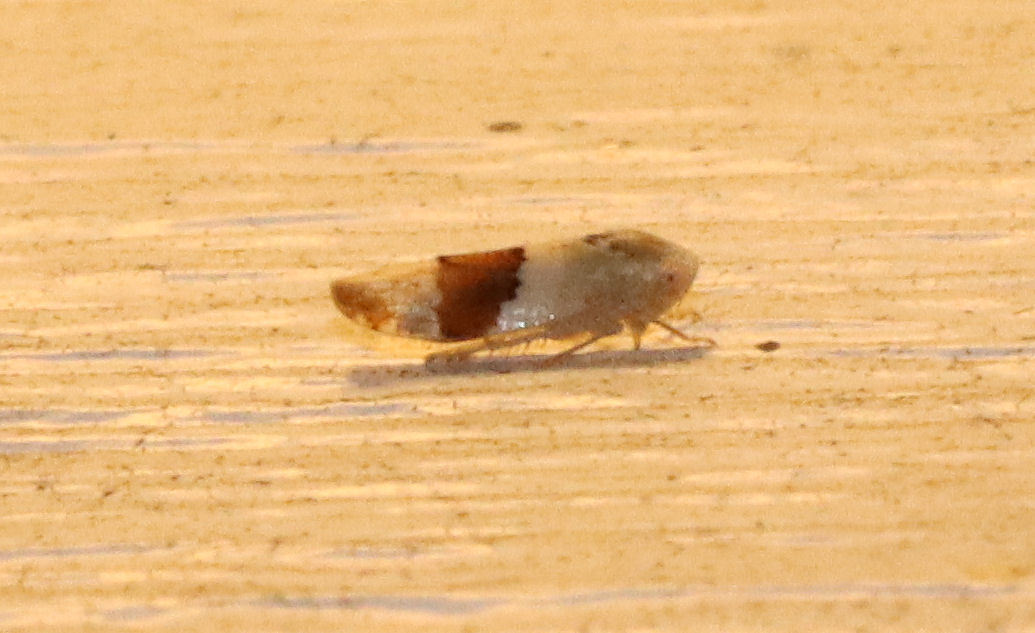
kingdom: Animalia
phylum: Arthropoda
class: Insecta
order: Hemiptera
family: Cicadellidae
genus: Norvellina
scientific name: Norvellina seminuda
